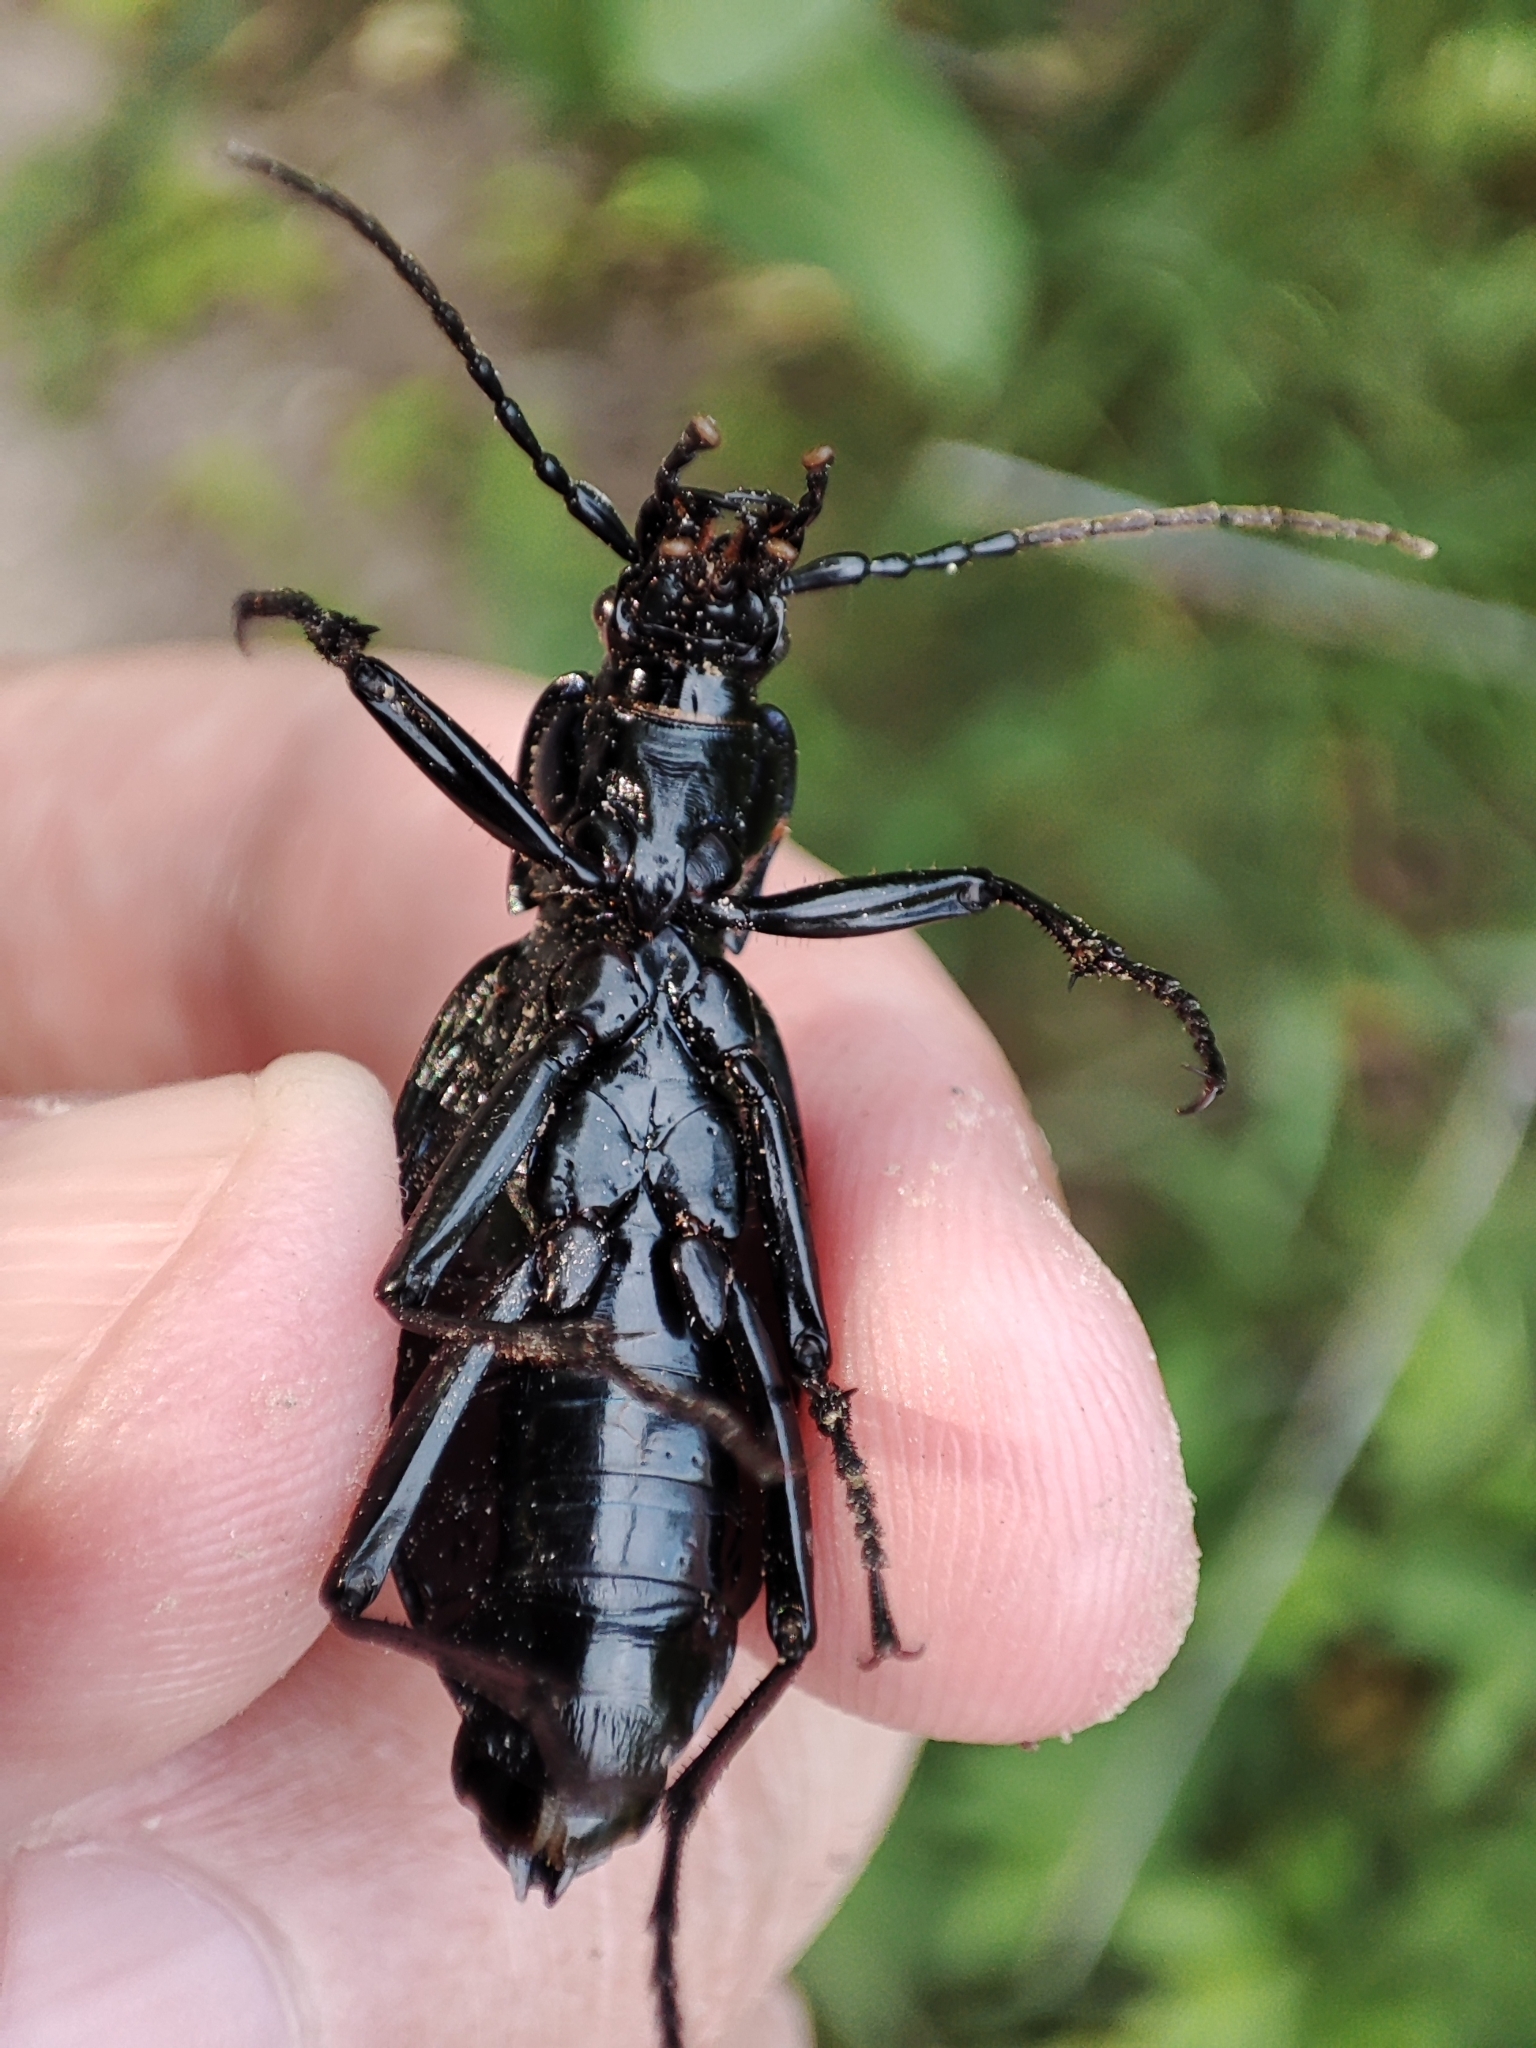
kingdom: Animalia
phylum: Arthropoda
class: Insecta
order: Coleoptera
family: Carabidae
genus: Carabus
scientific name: Carabus intricatus
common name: Blue ground beetle
